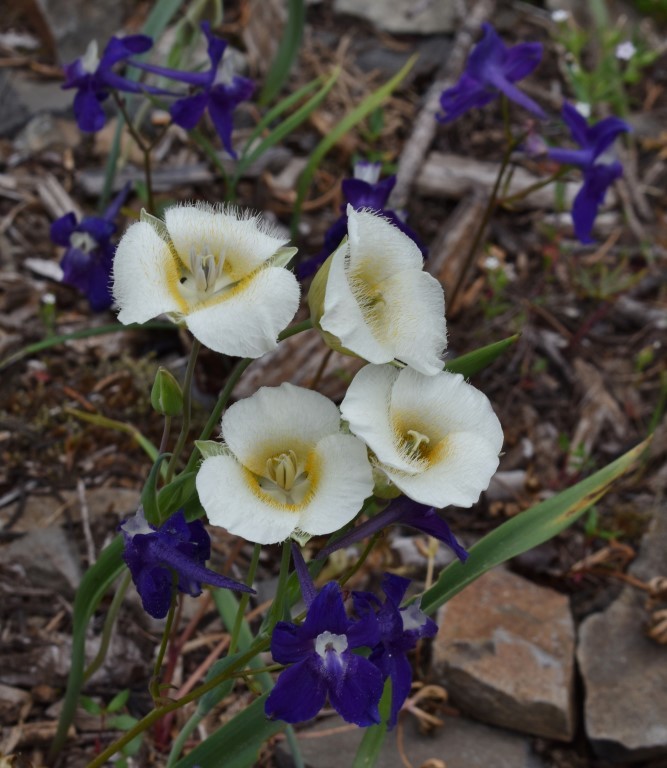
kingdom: Plantae
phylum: Tracheophyta
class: Liliopsida
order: Liliales
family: Liliaceae
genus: Calochortus
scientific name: Calochortus subalpinus
